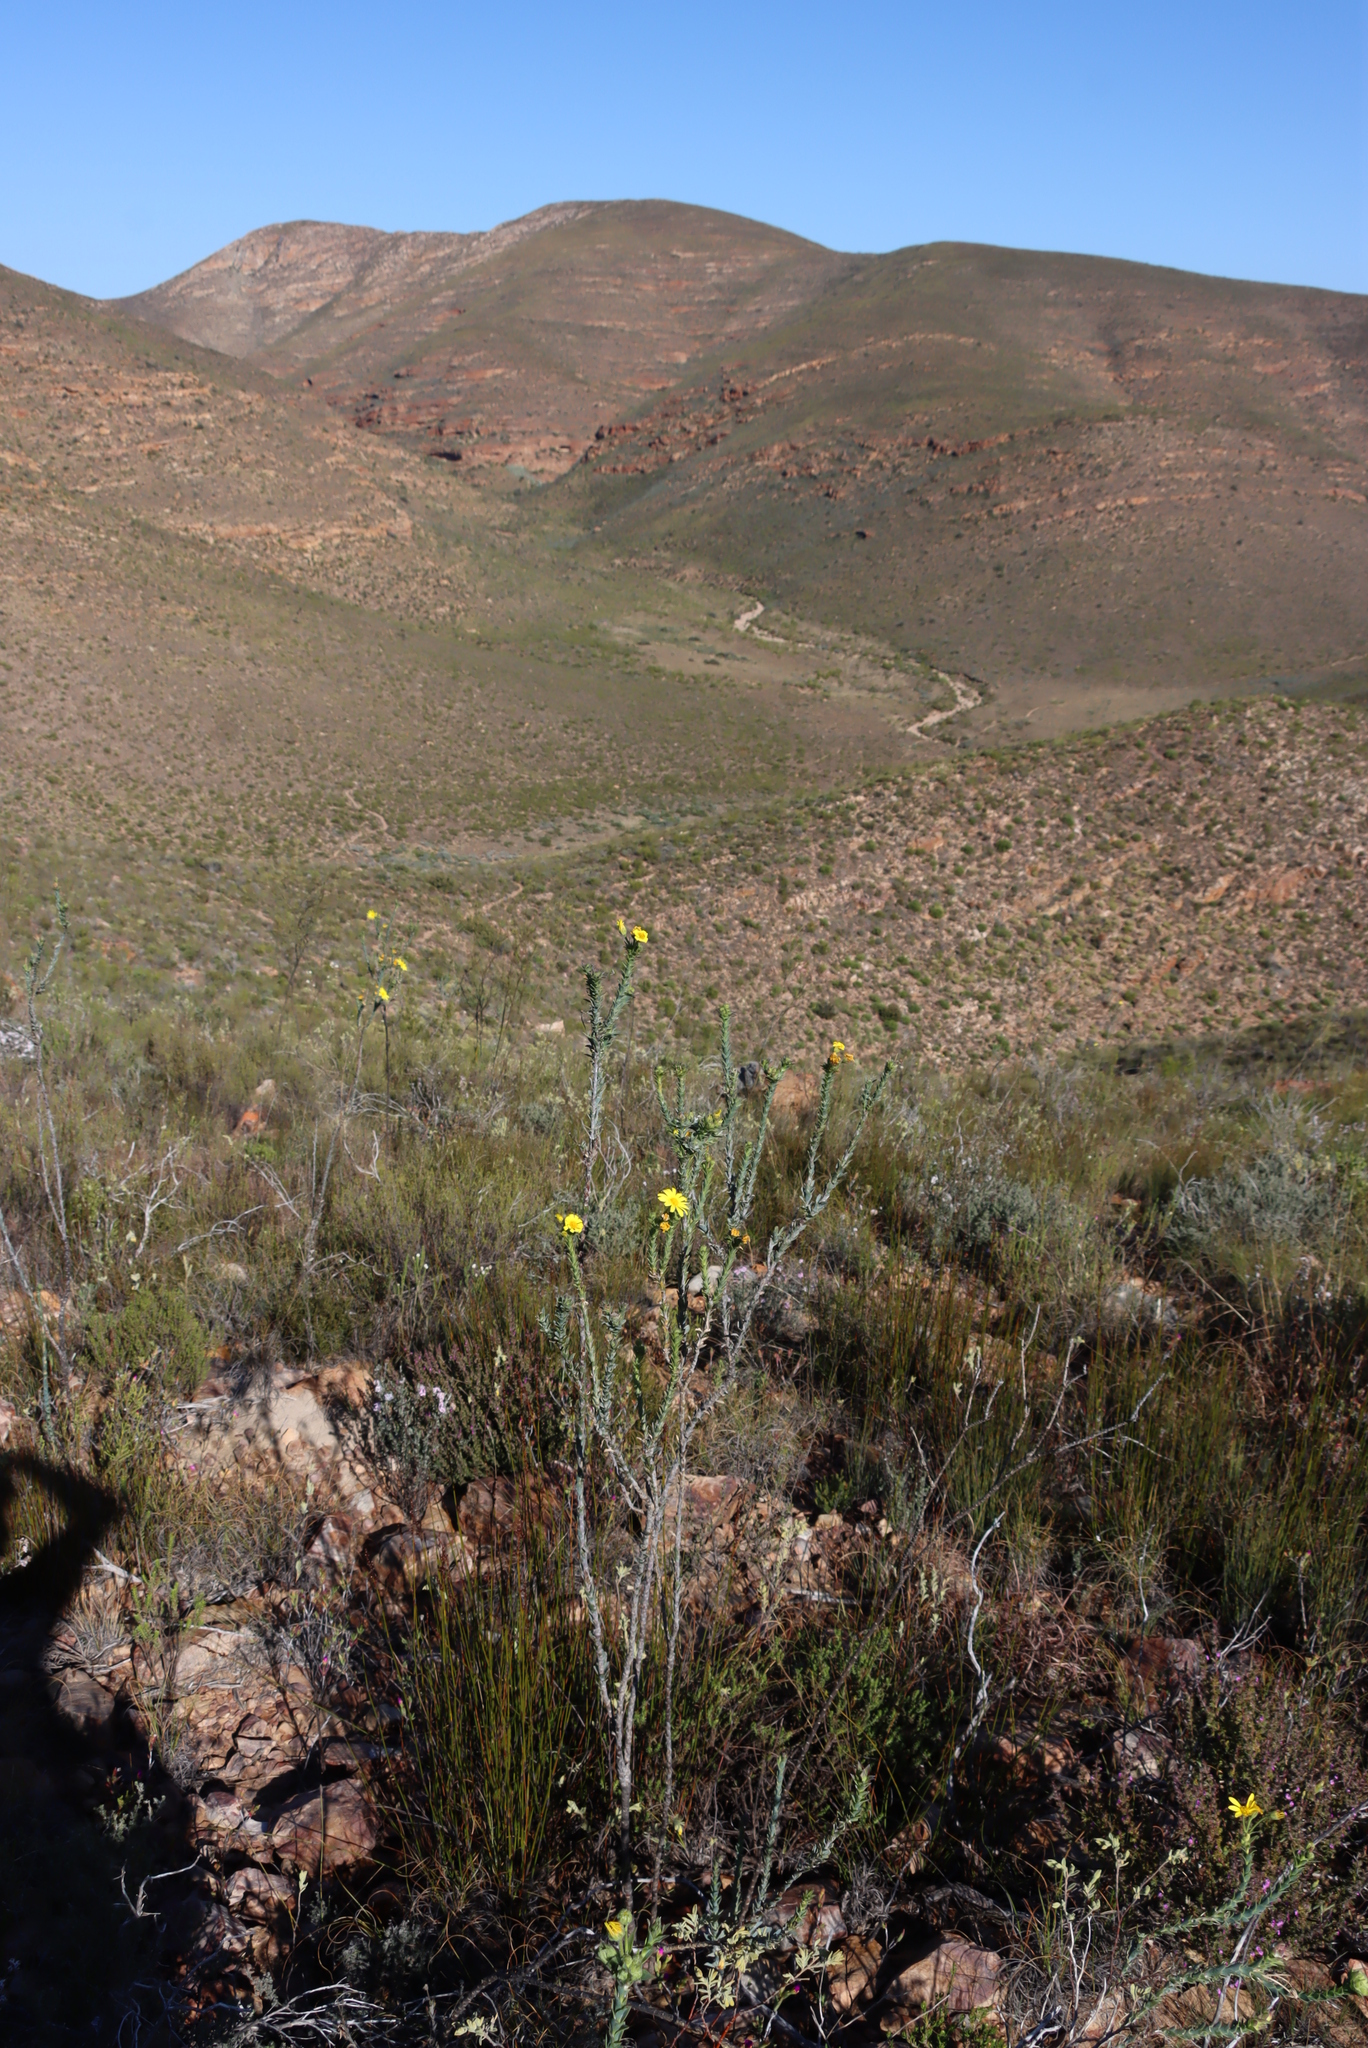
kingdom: Plantae
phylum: Tracheophyta
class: Magnoliopsida
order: Asterales
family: Asteraceae
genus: Euryops
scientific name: Euryops lateriflorus
